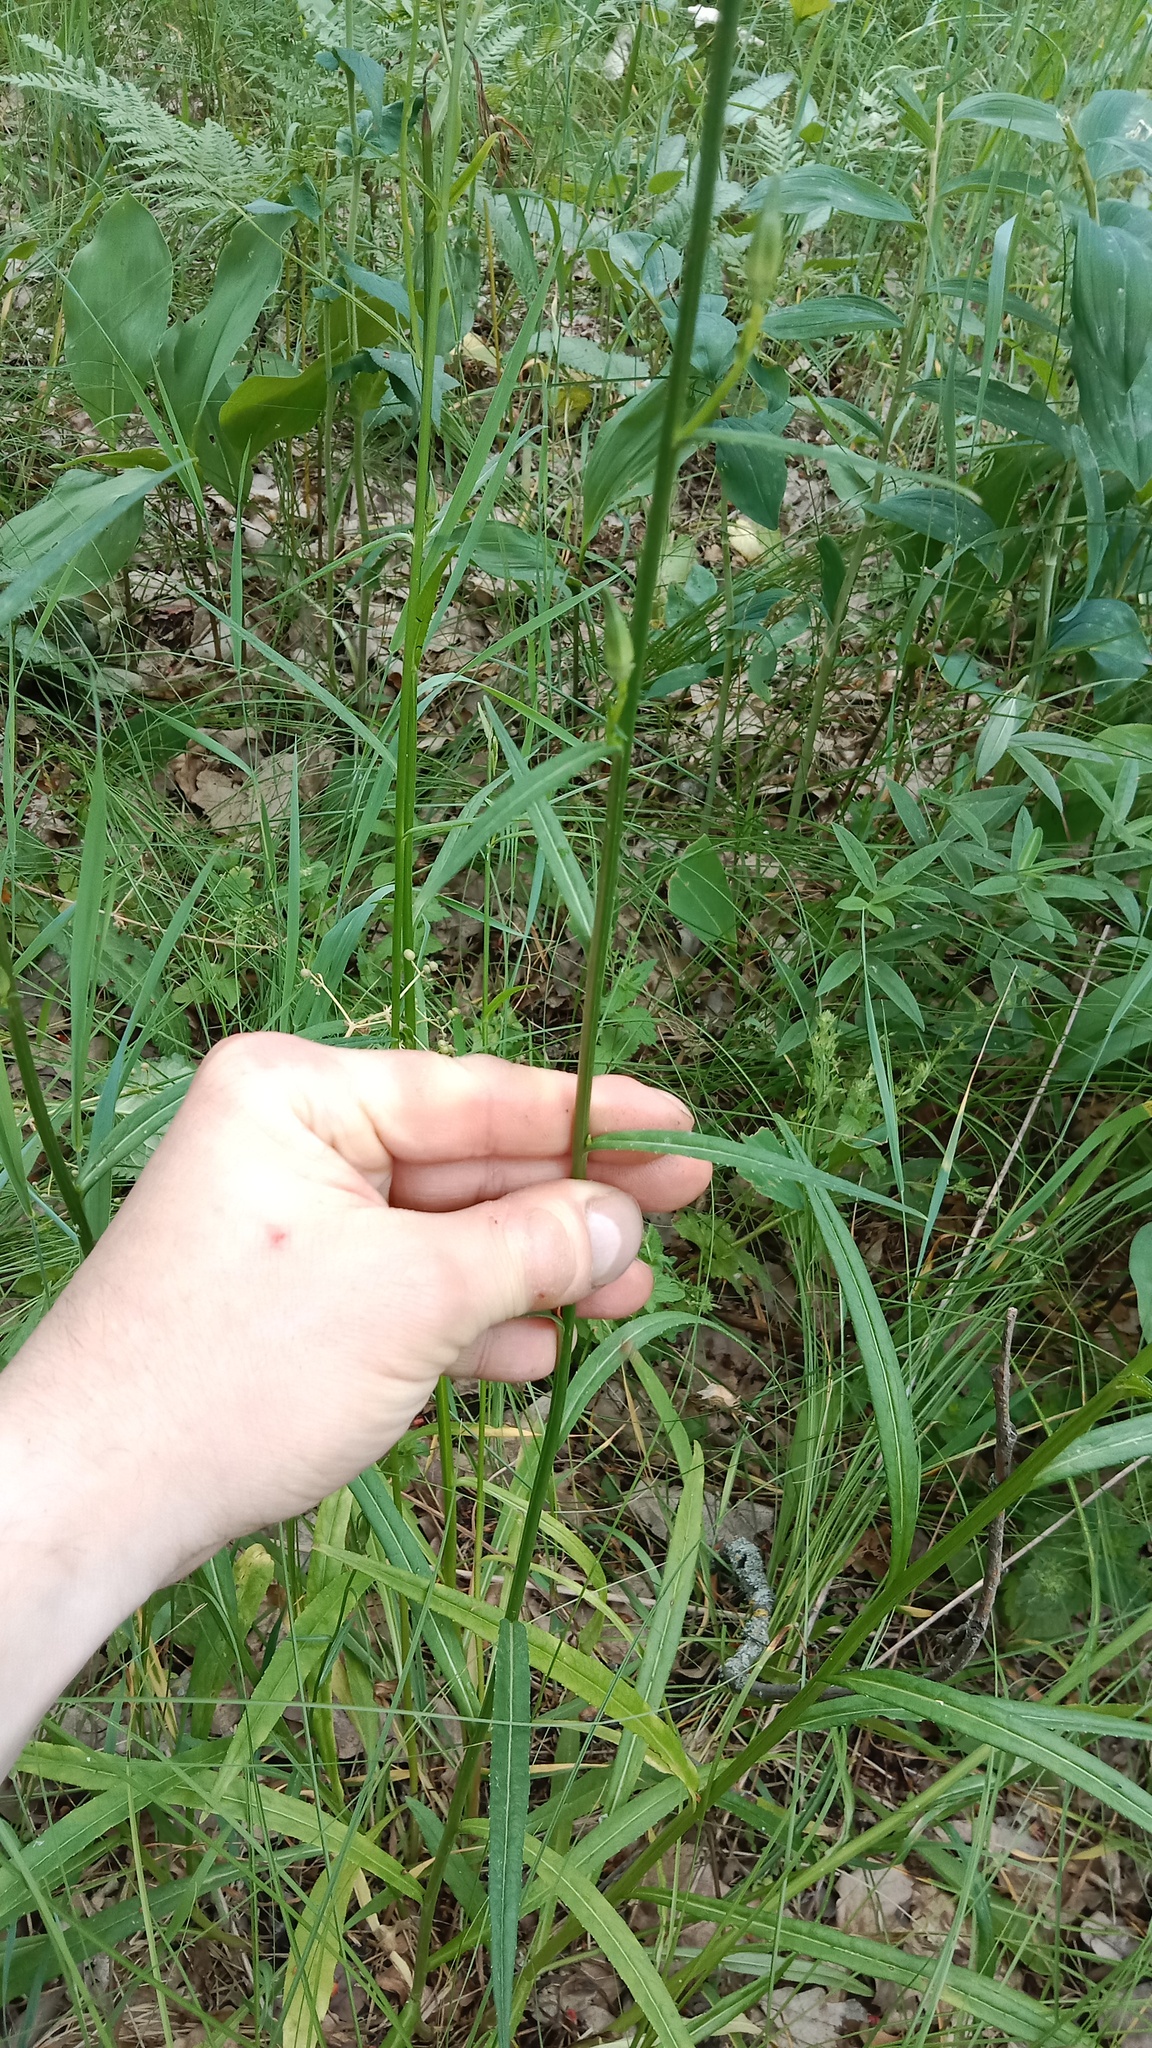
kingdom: Plantae
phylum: Tracheophyta
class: Magnoliopsida
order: Asterales
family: Campanulaceae
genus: Campanula
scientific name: Campanula persicifolia
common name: Peach-leaved bellflower
